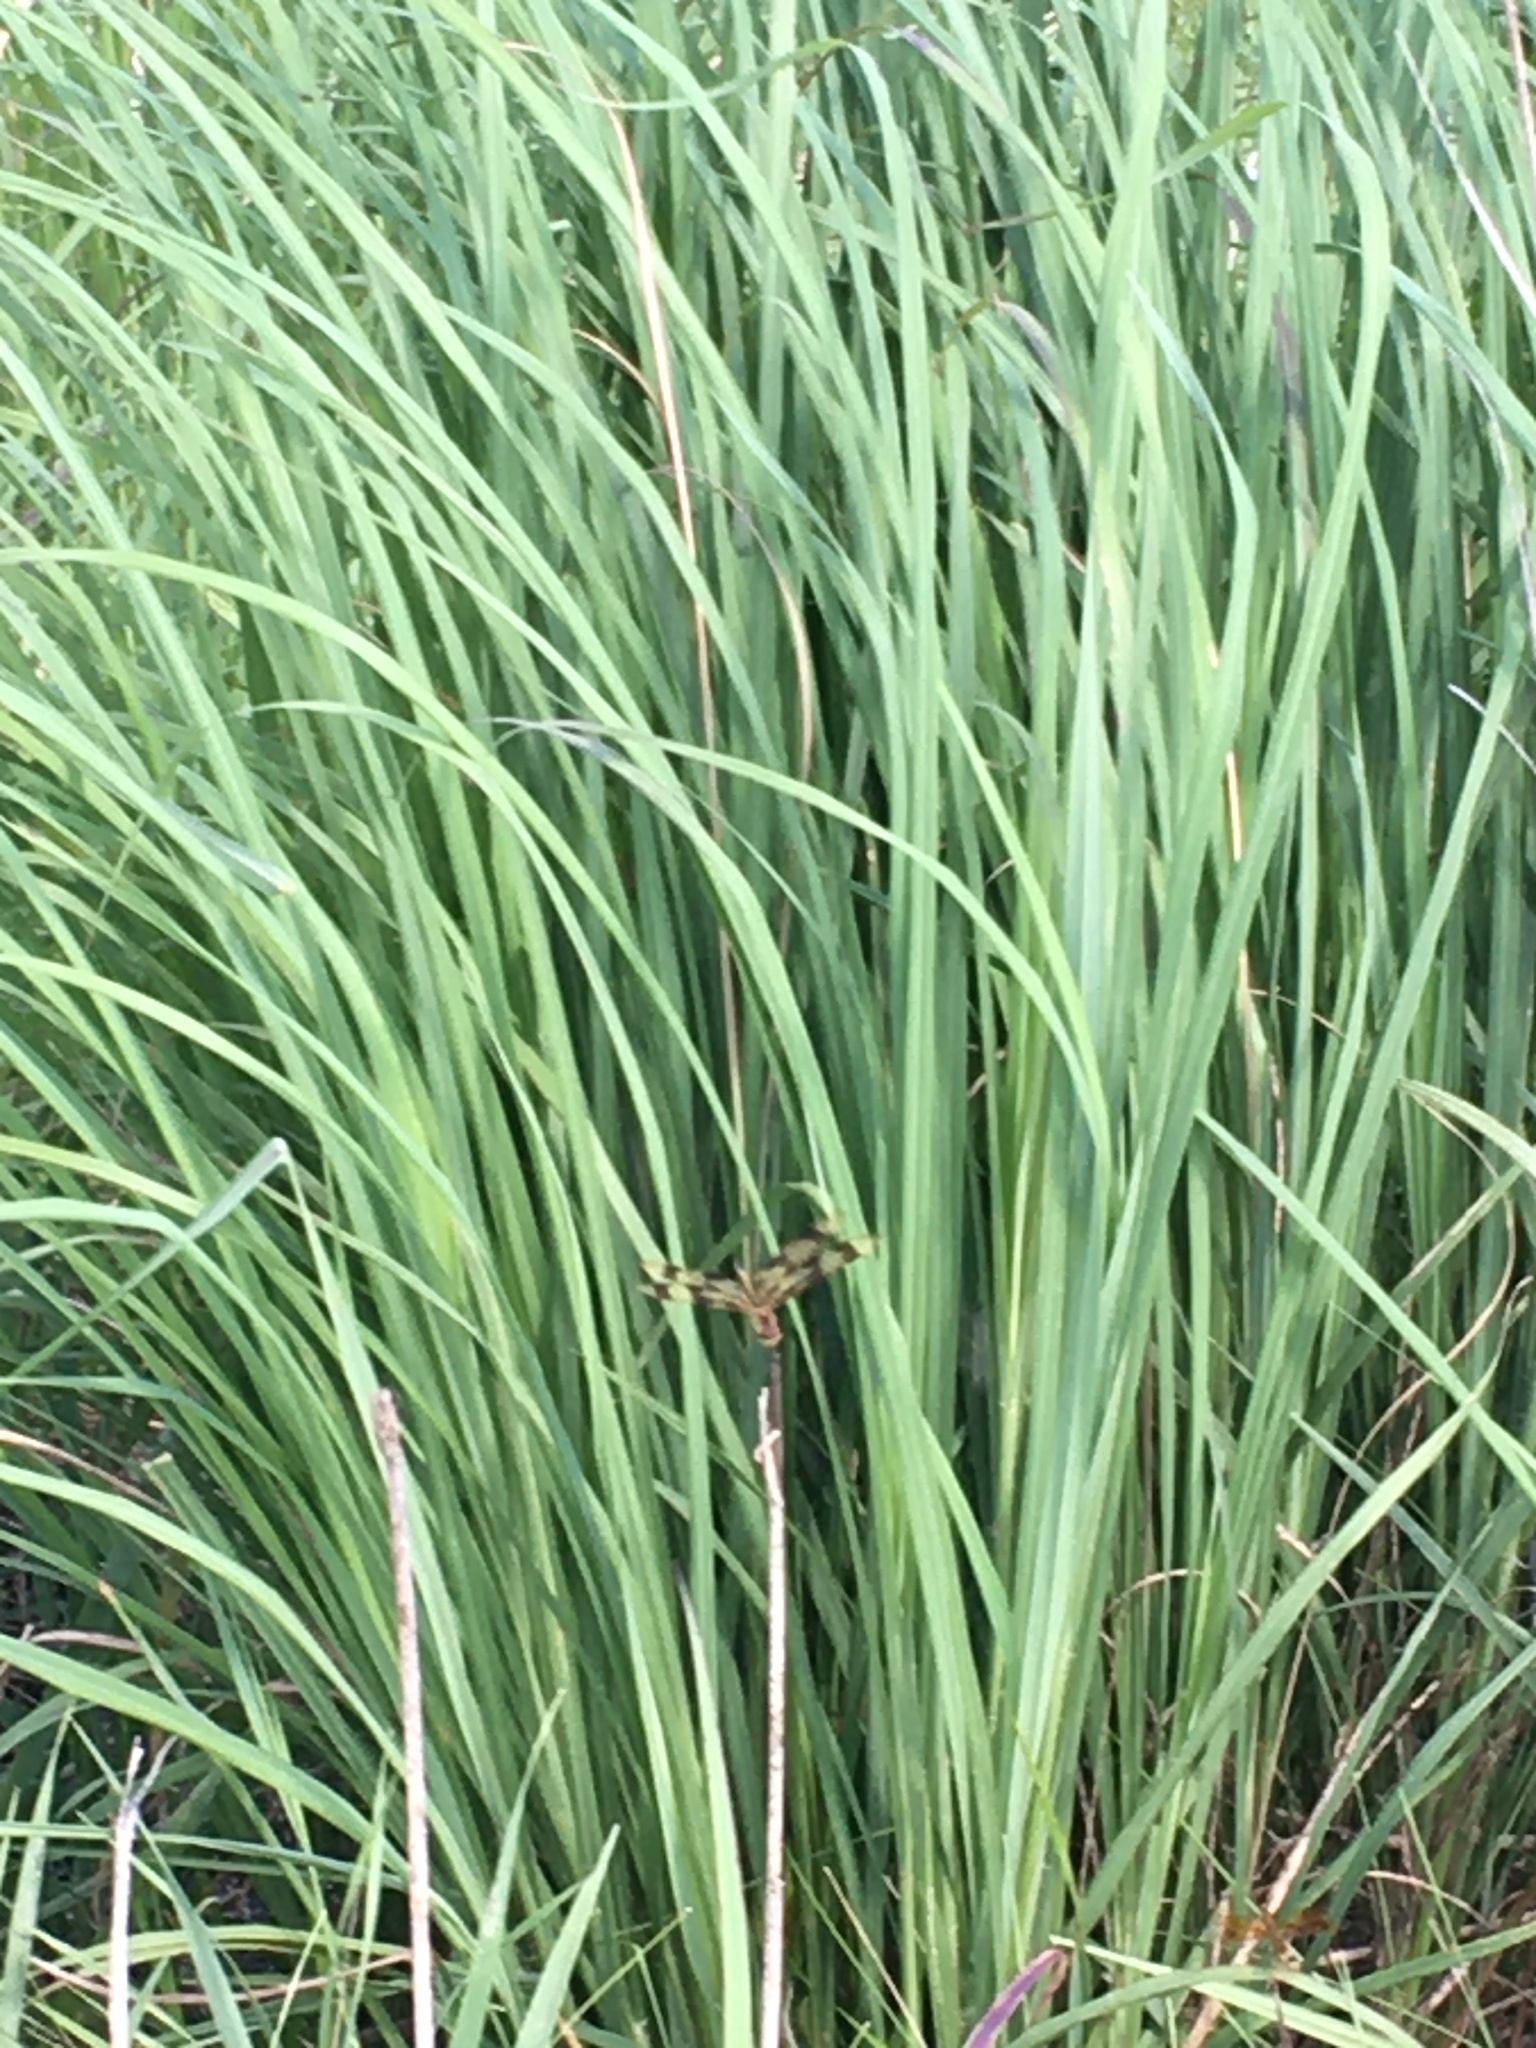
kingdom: Animalia
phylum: Arthropoda
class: Insecta
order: Odonata
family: Libellulidae
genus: Celithemis
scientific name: Celithemis eponina
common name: Halloween pennant
